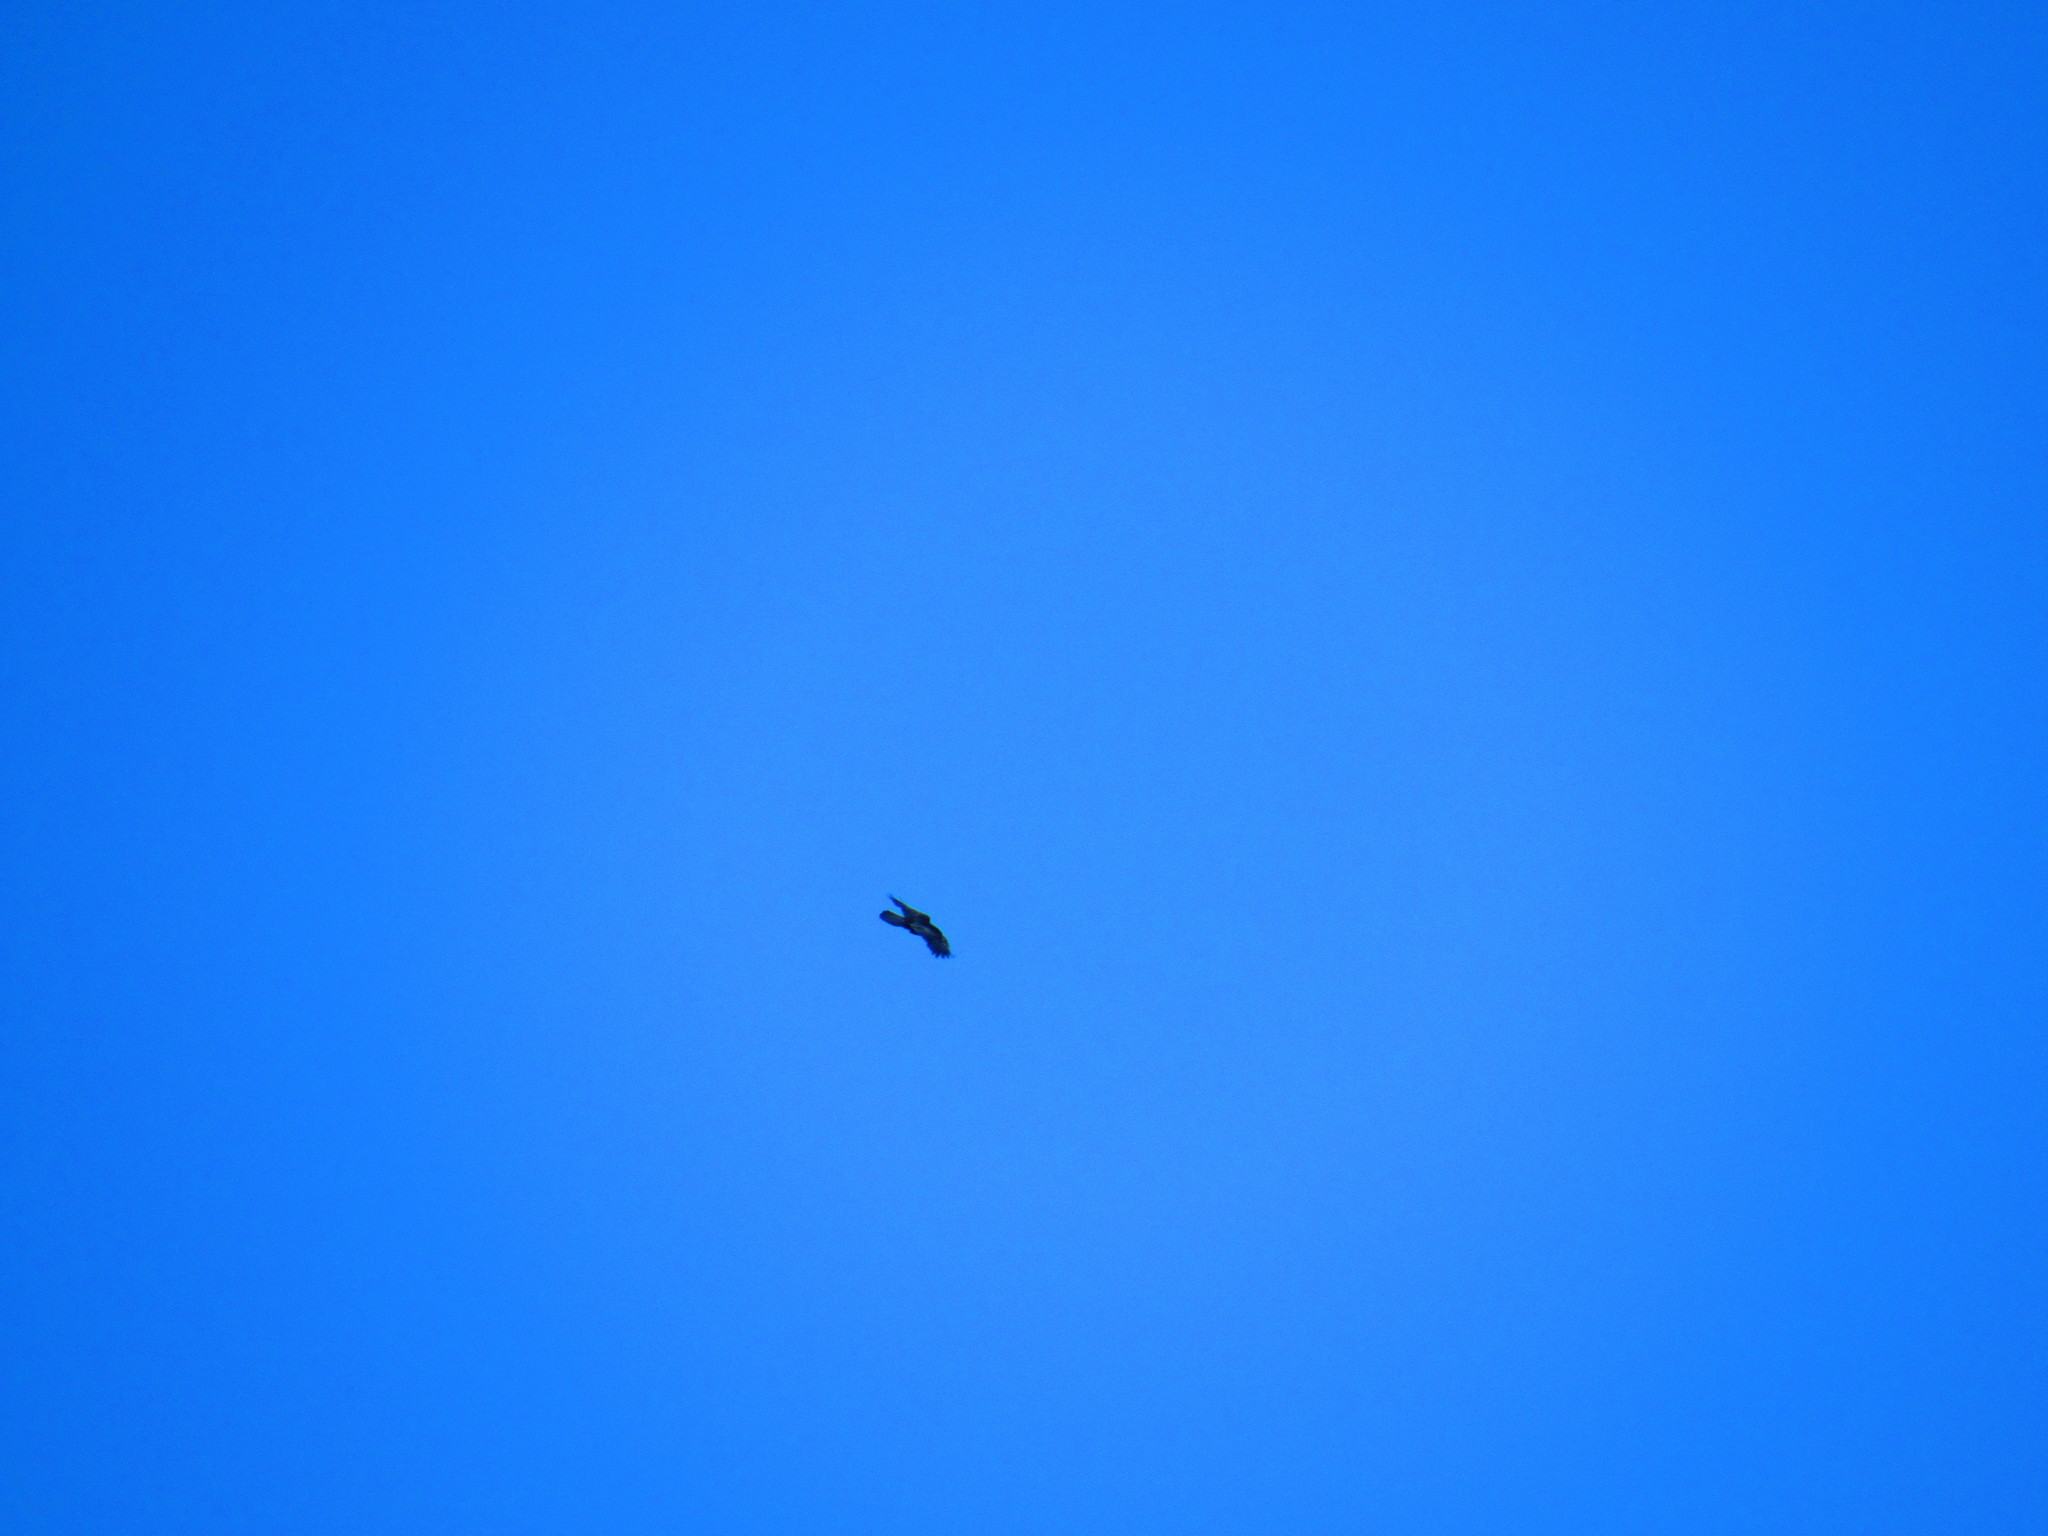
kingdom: Animalia
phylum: Chordata
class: Aves
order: Passeriformes
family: Corvidae
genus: Corvus
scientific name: Corvus corax
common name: Common raven
